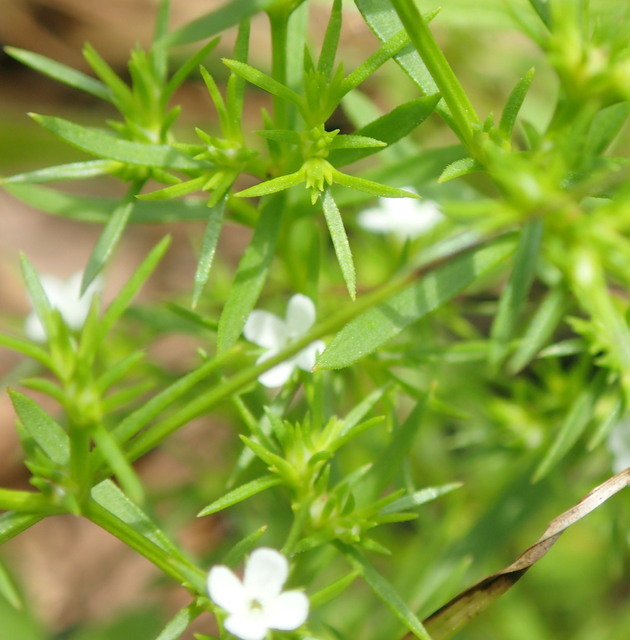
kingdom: Plantae
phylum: Tracheophyta
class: Magnoliopsida
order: Lamiales
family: Tetrachondraceae
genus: Polypremum
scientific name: Polypremum procumbens
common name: Juniper-leaf
